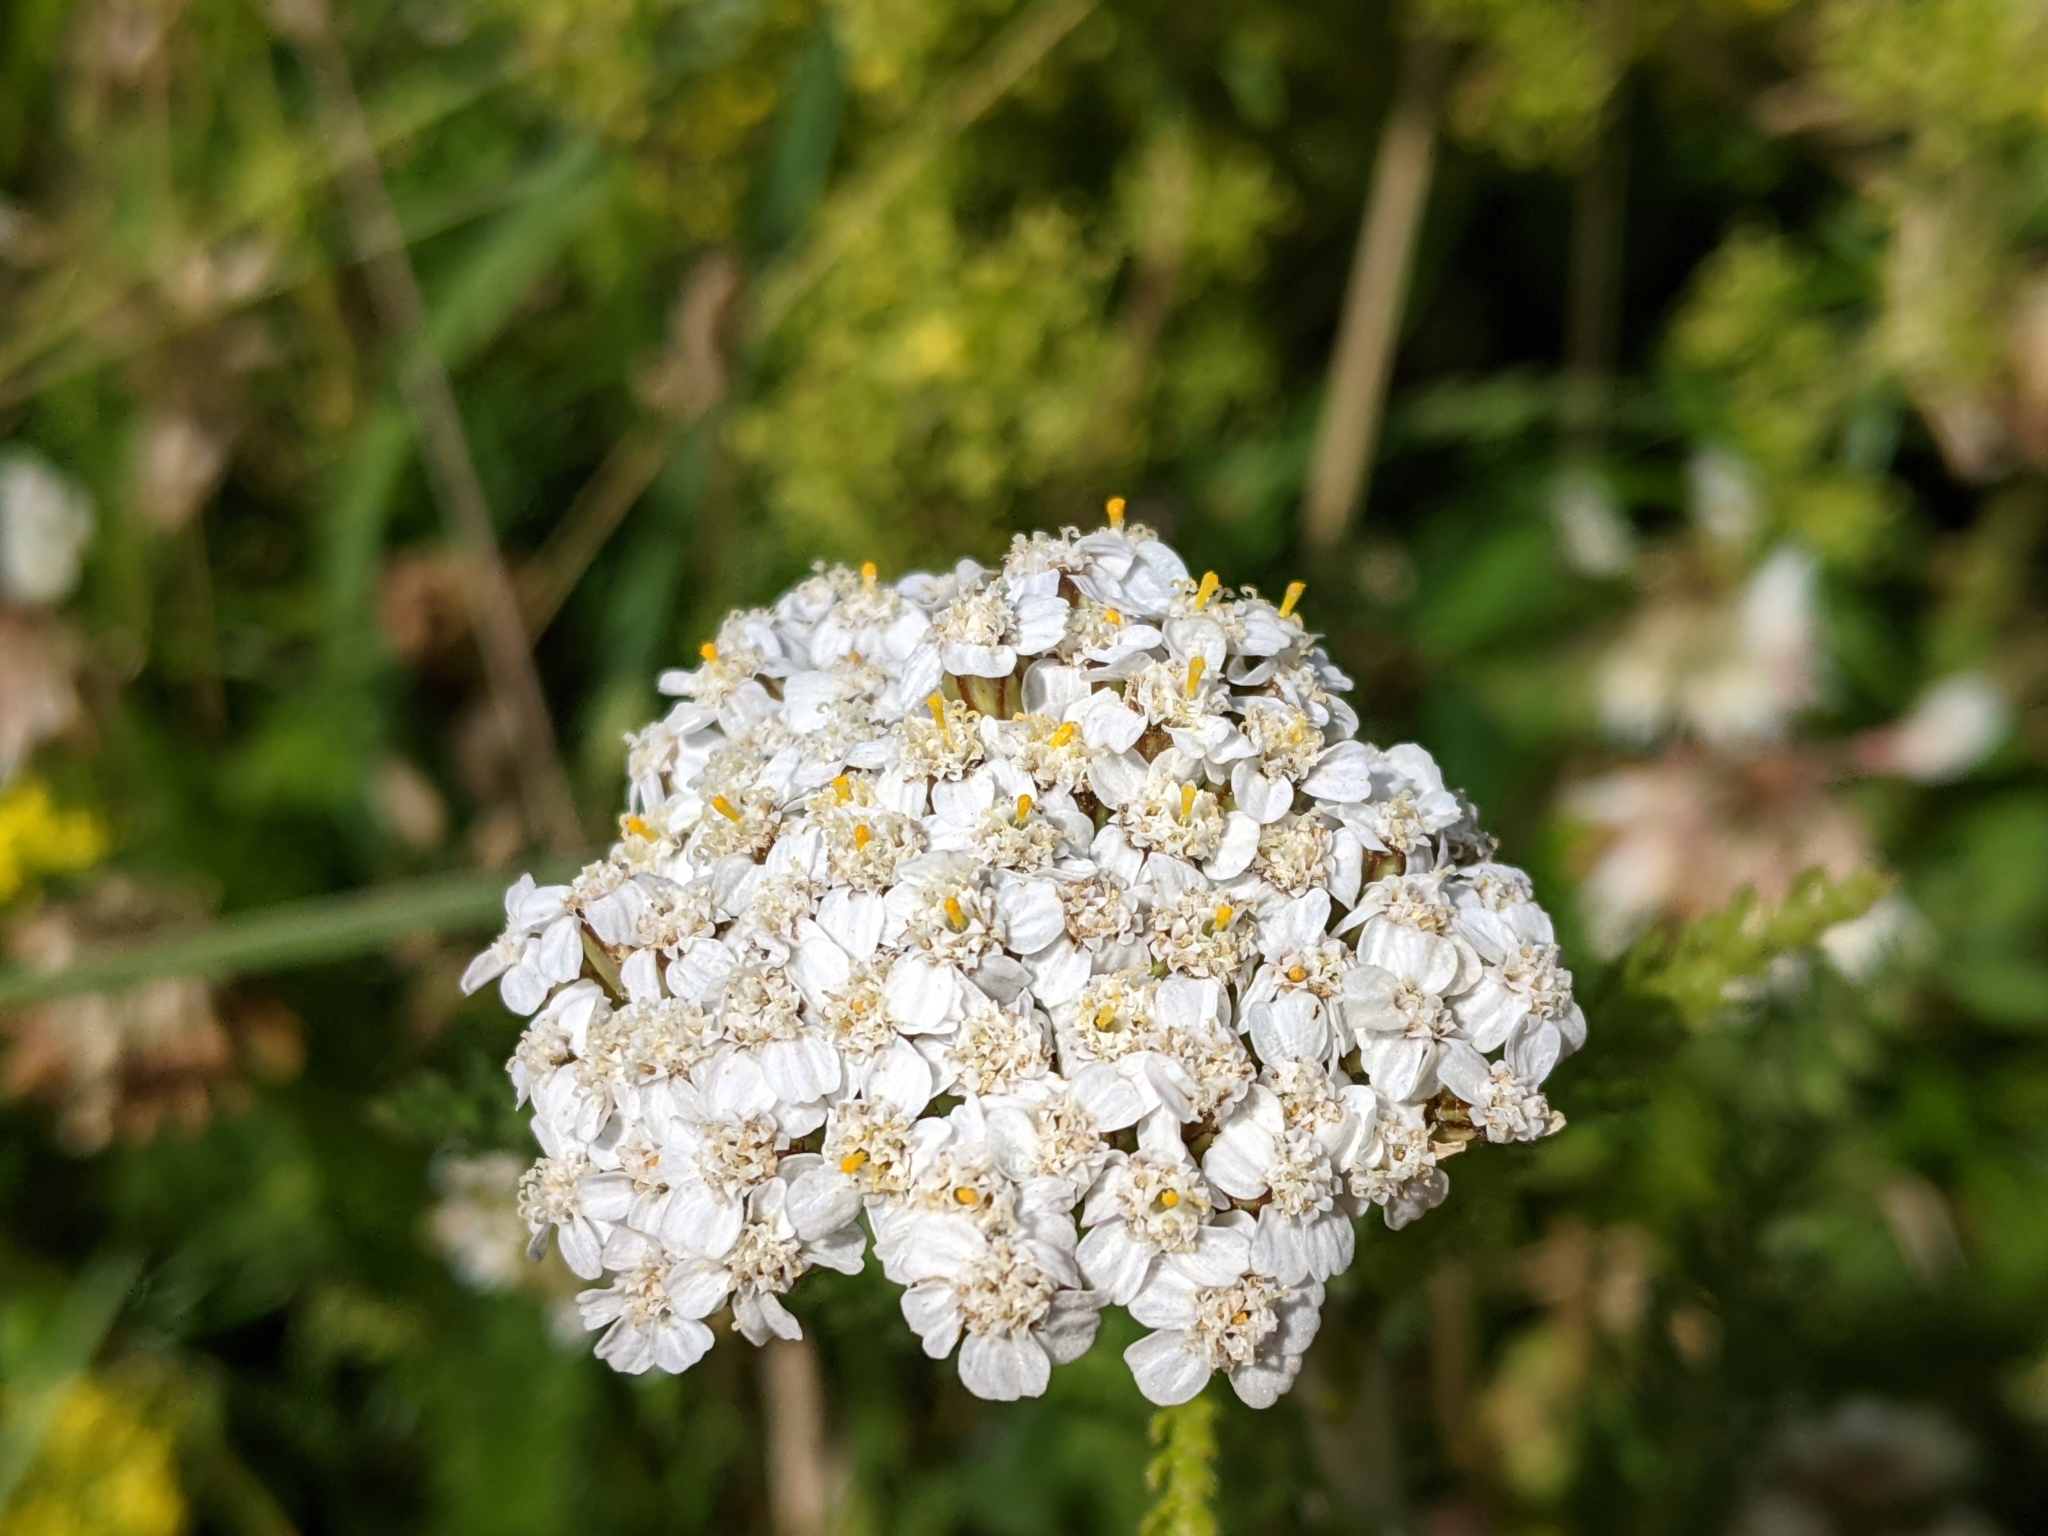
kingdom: Plantae
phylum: Tracheophyta
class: Magnoliopsida
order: Asterales
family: Asteraceae
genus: Achillea
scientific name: Achillea millefolium
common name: Yarrow
